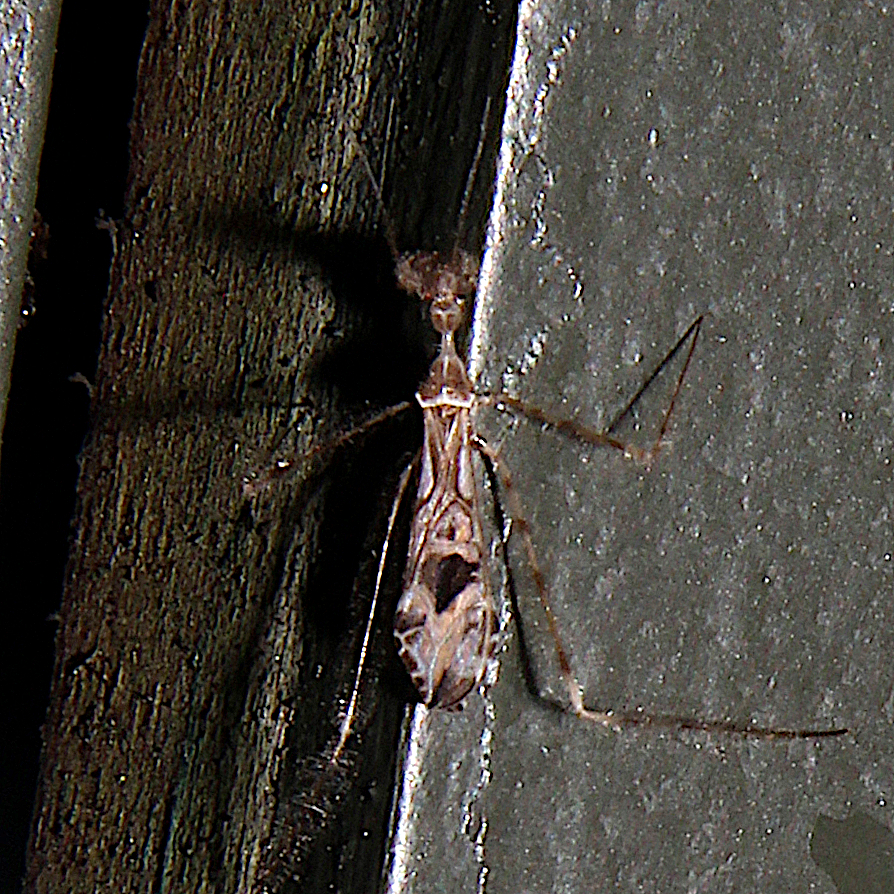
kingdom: Animalia
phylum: Arthropoda
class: Insecta
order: Hemiptera
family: Reduviidae
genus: Stenolemus
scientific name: Stenolemus fraterculus
